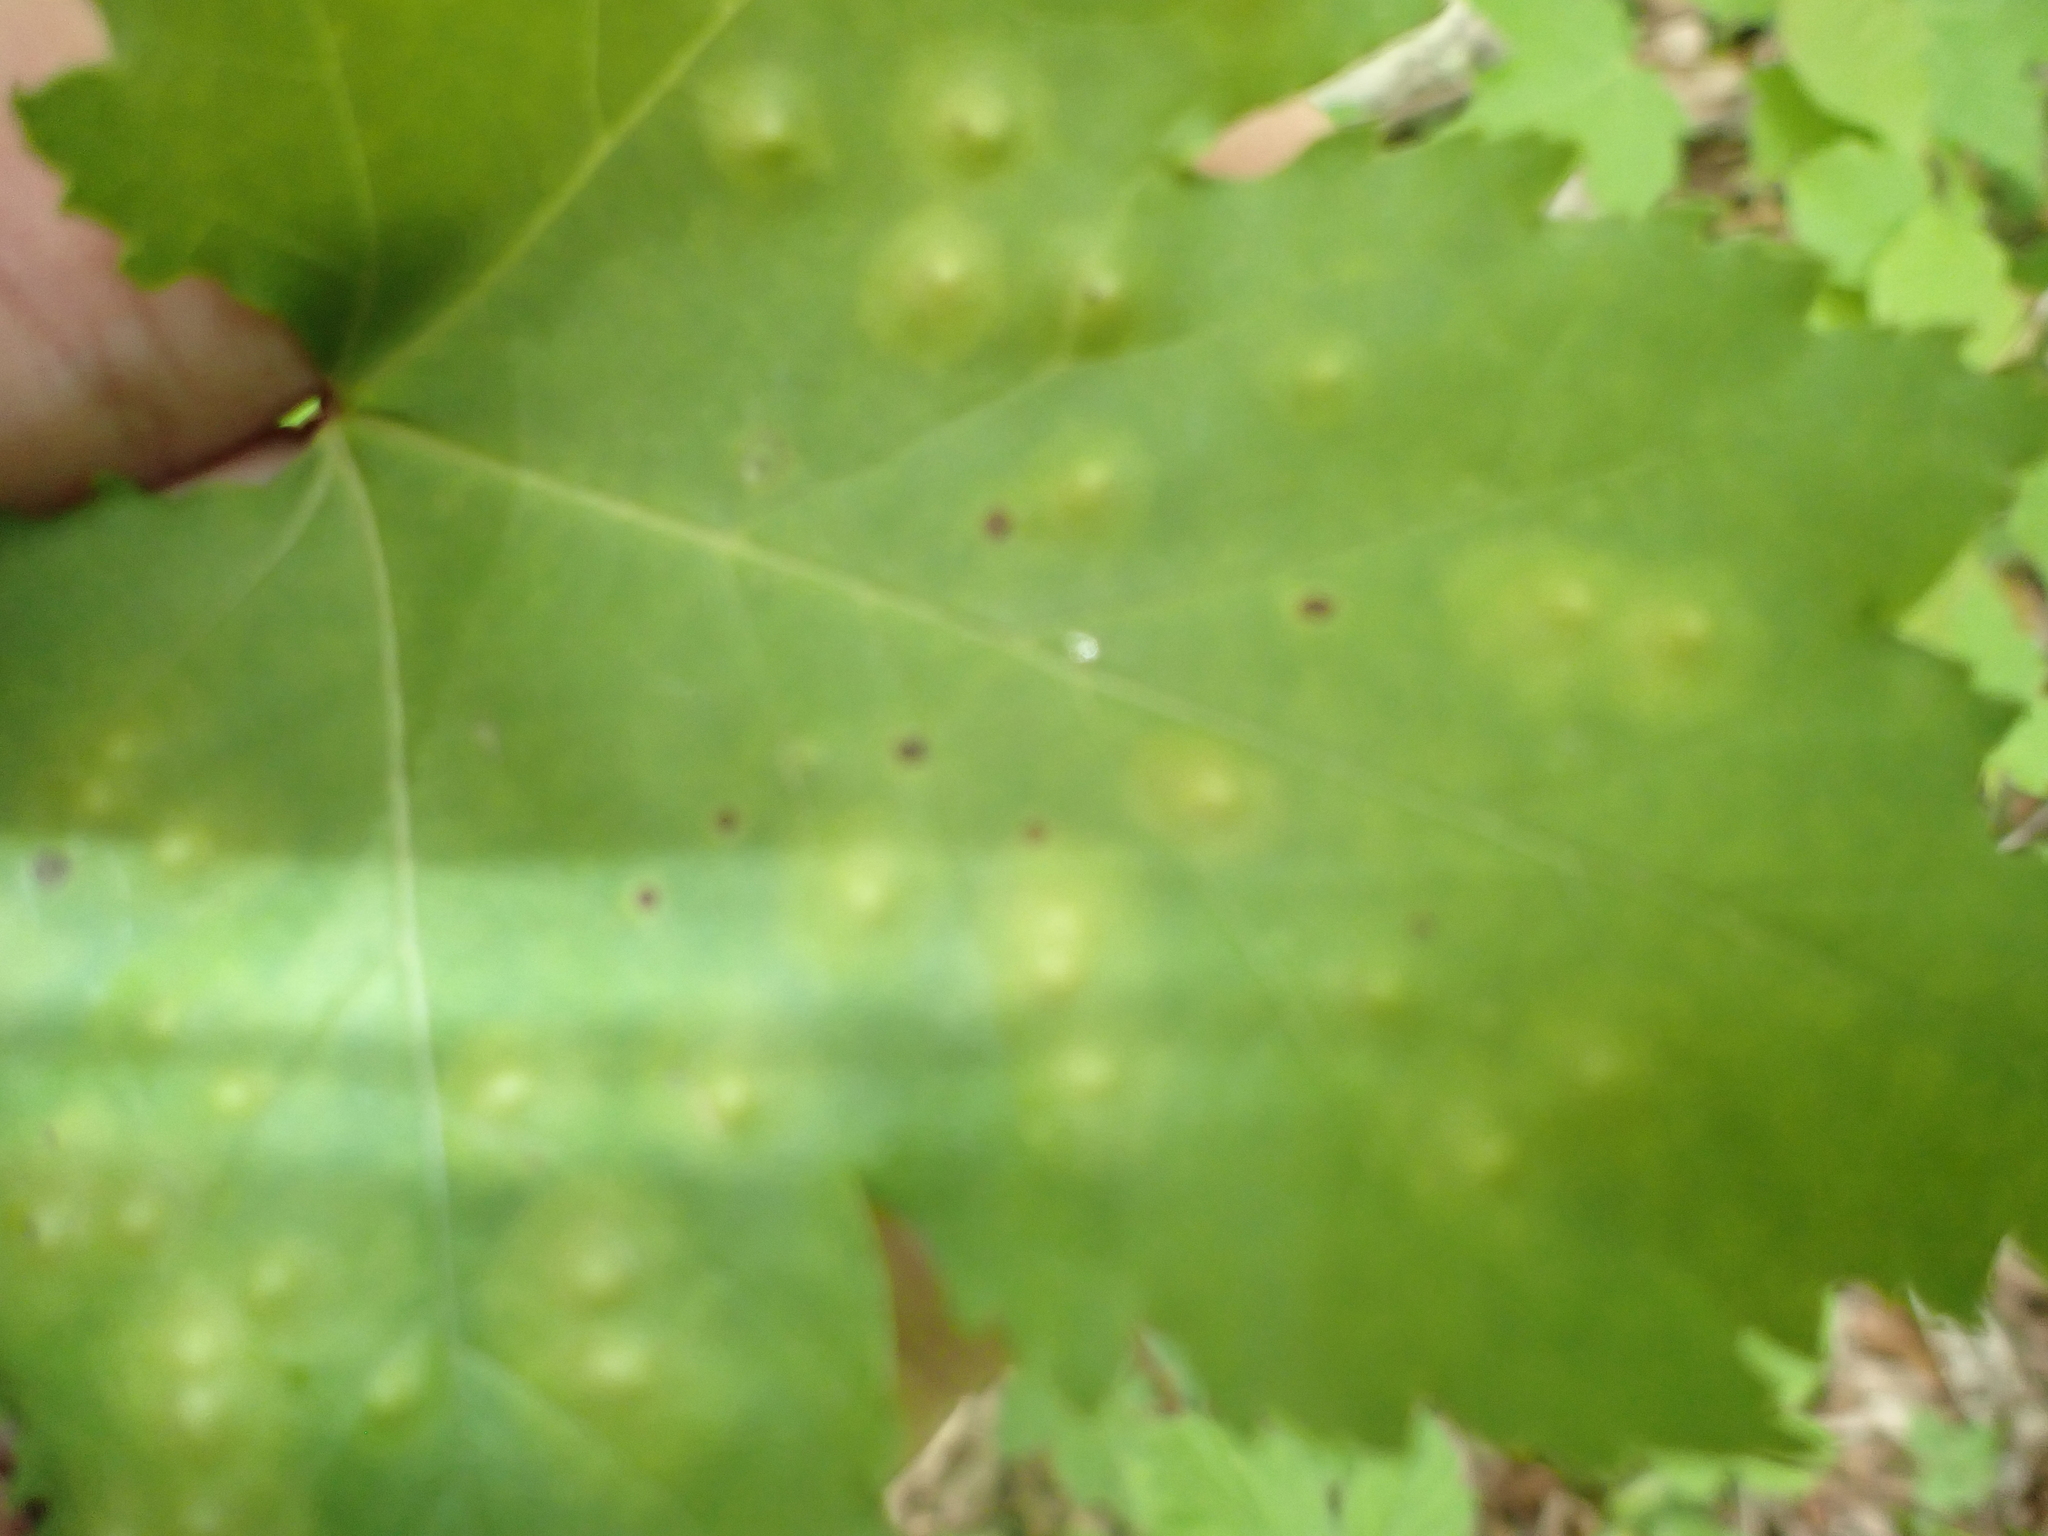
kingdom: Animalia
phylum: Arthropoda
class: Insecta
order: Diptera
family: Cecidomyiidae
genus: Acericecis
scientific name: Acericecis ocellaris
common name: Ocellate gall midge
